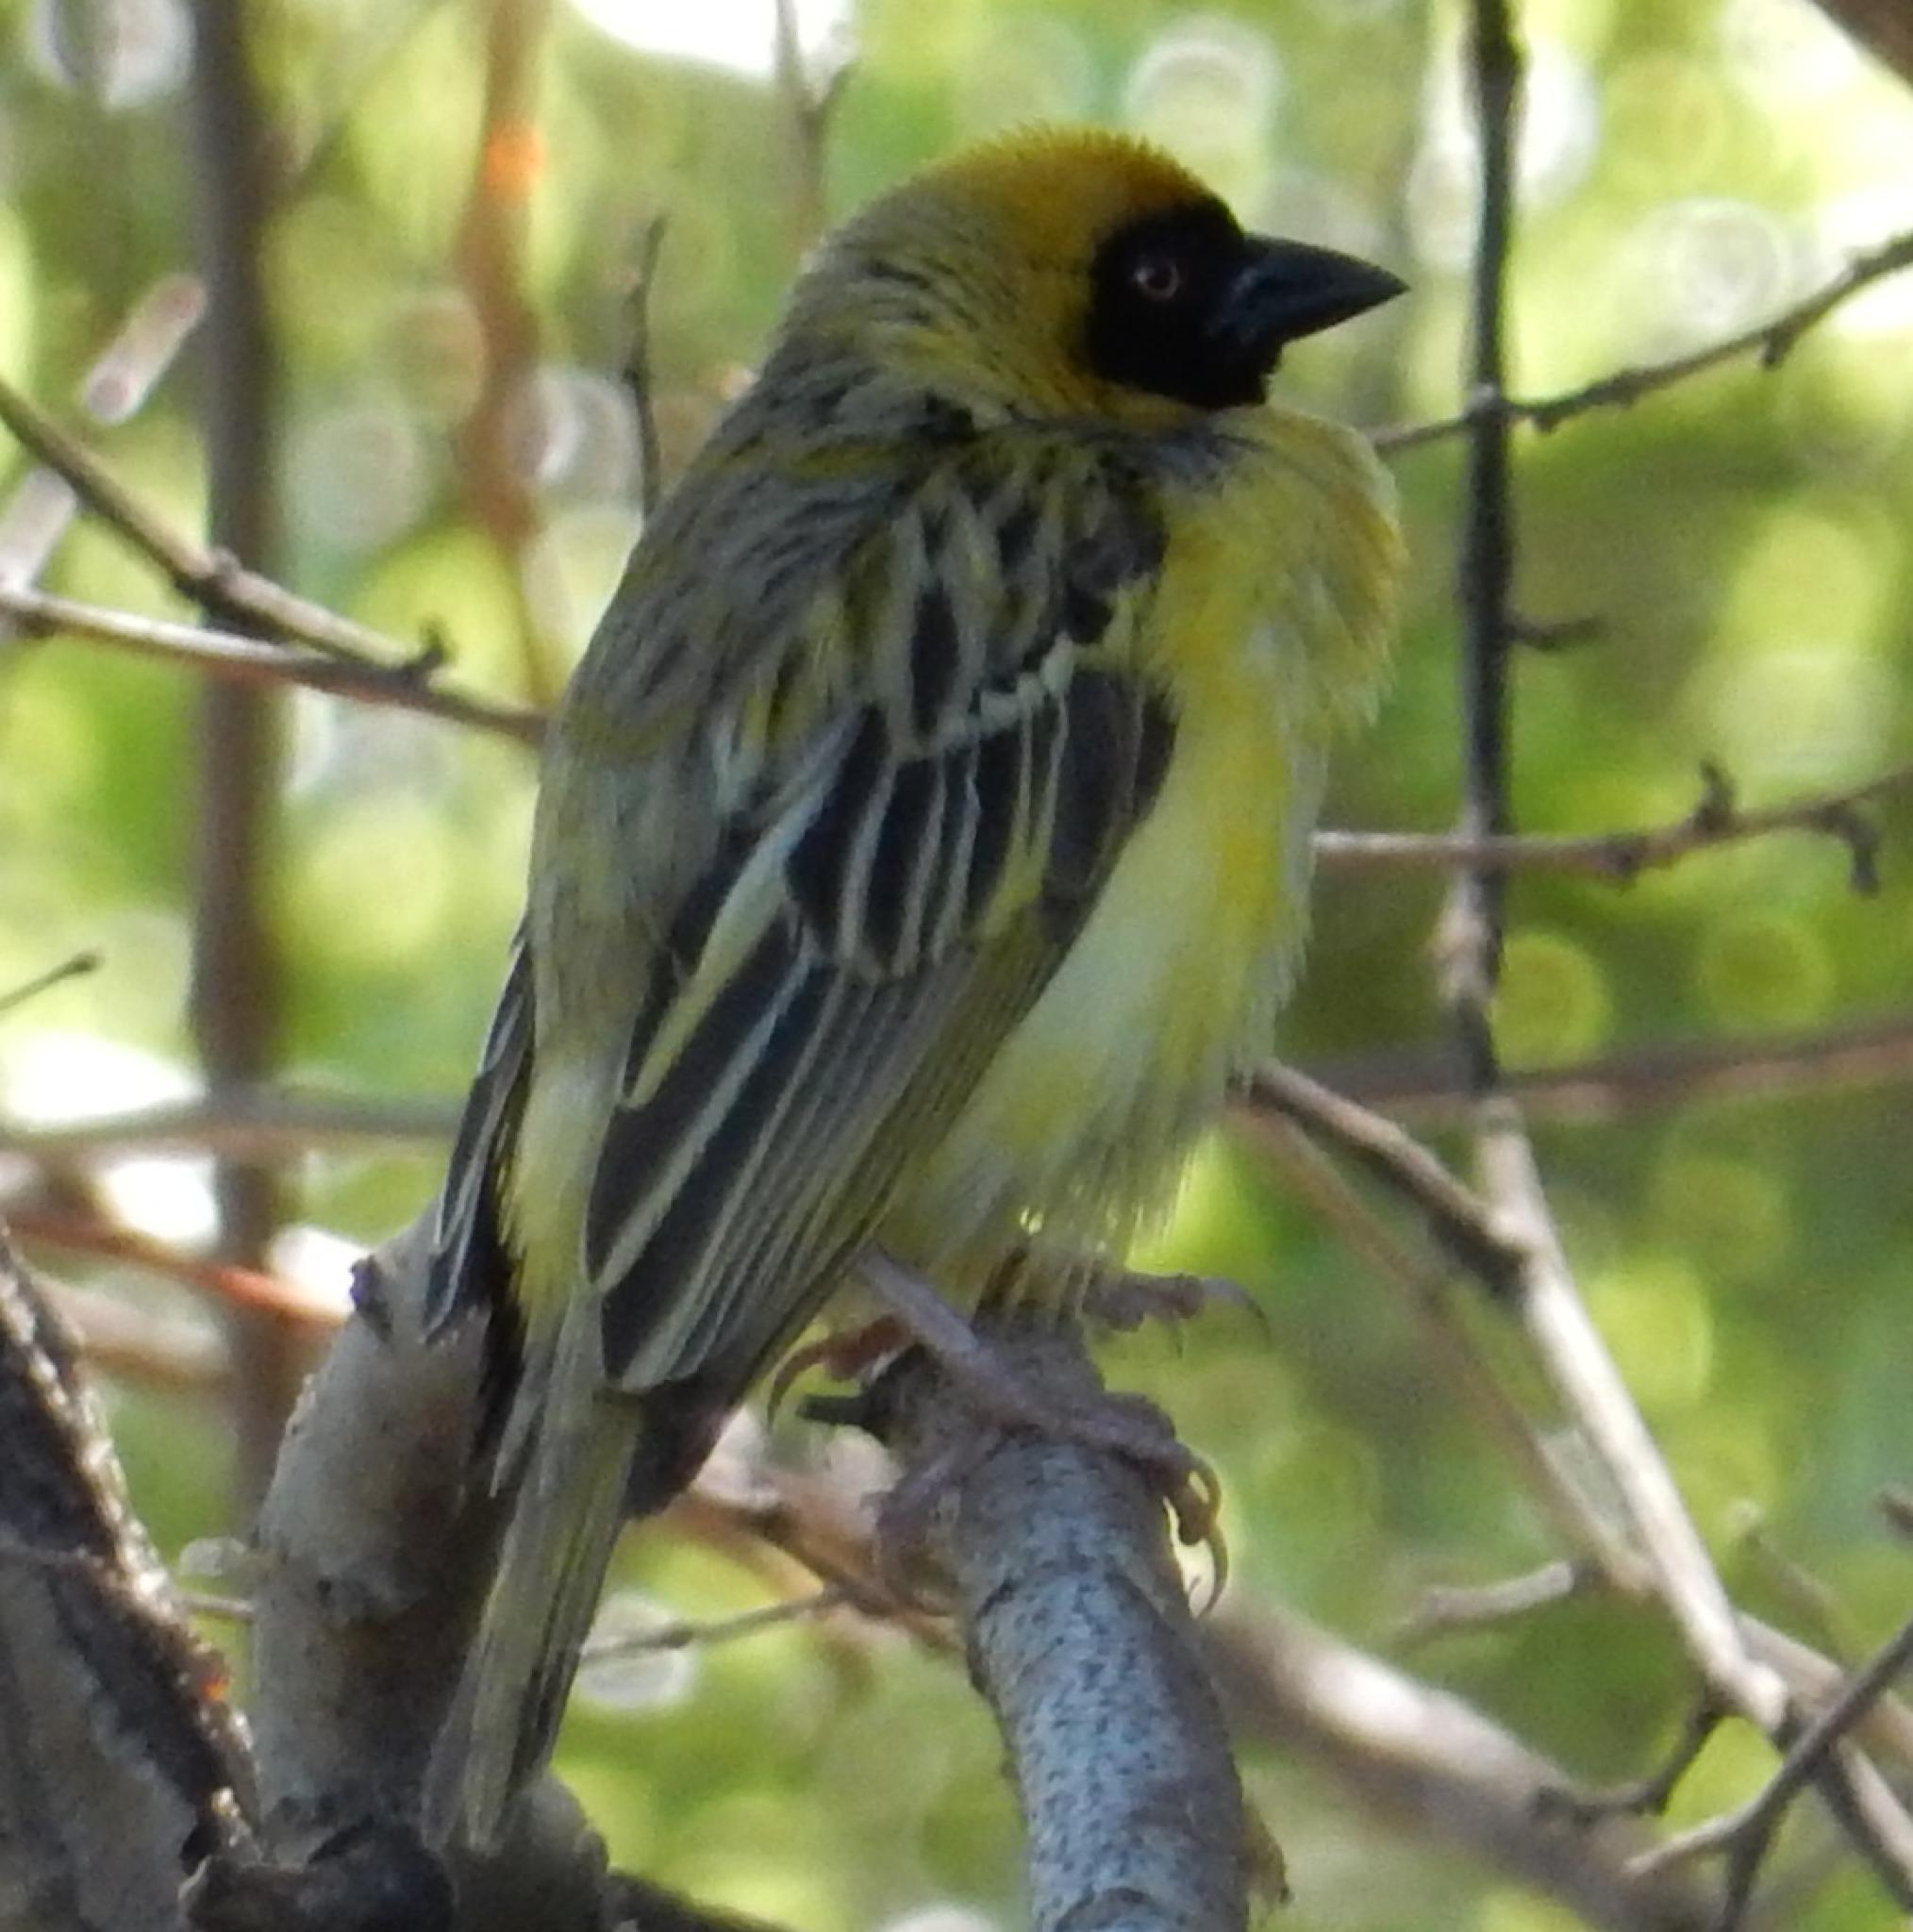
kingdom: Animalia
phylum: Chordata
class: Aves
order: Passeriformes
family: Ploceidae
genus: Ploceus
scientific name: Ploceus velatus
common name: Southern masked weaver
